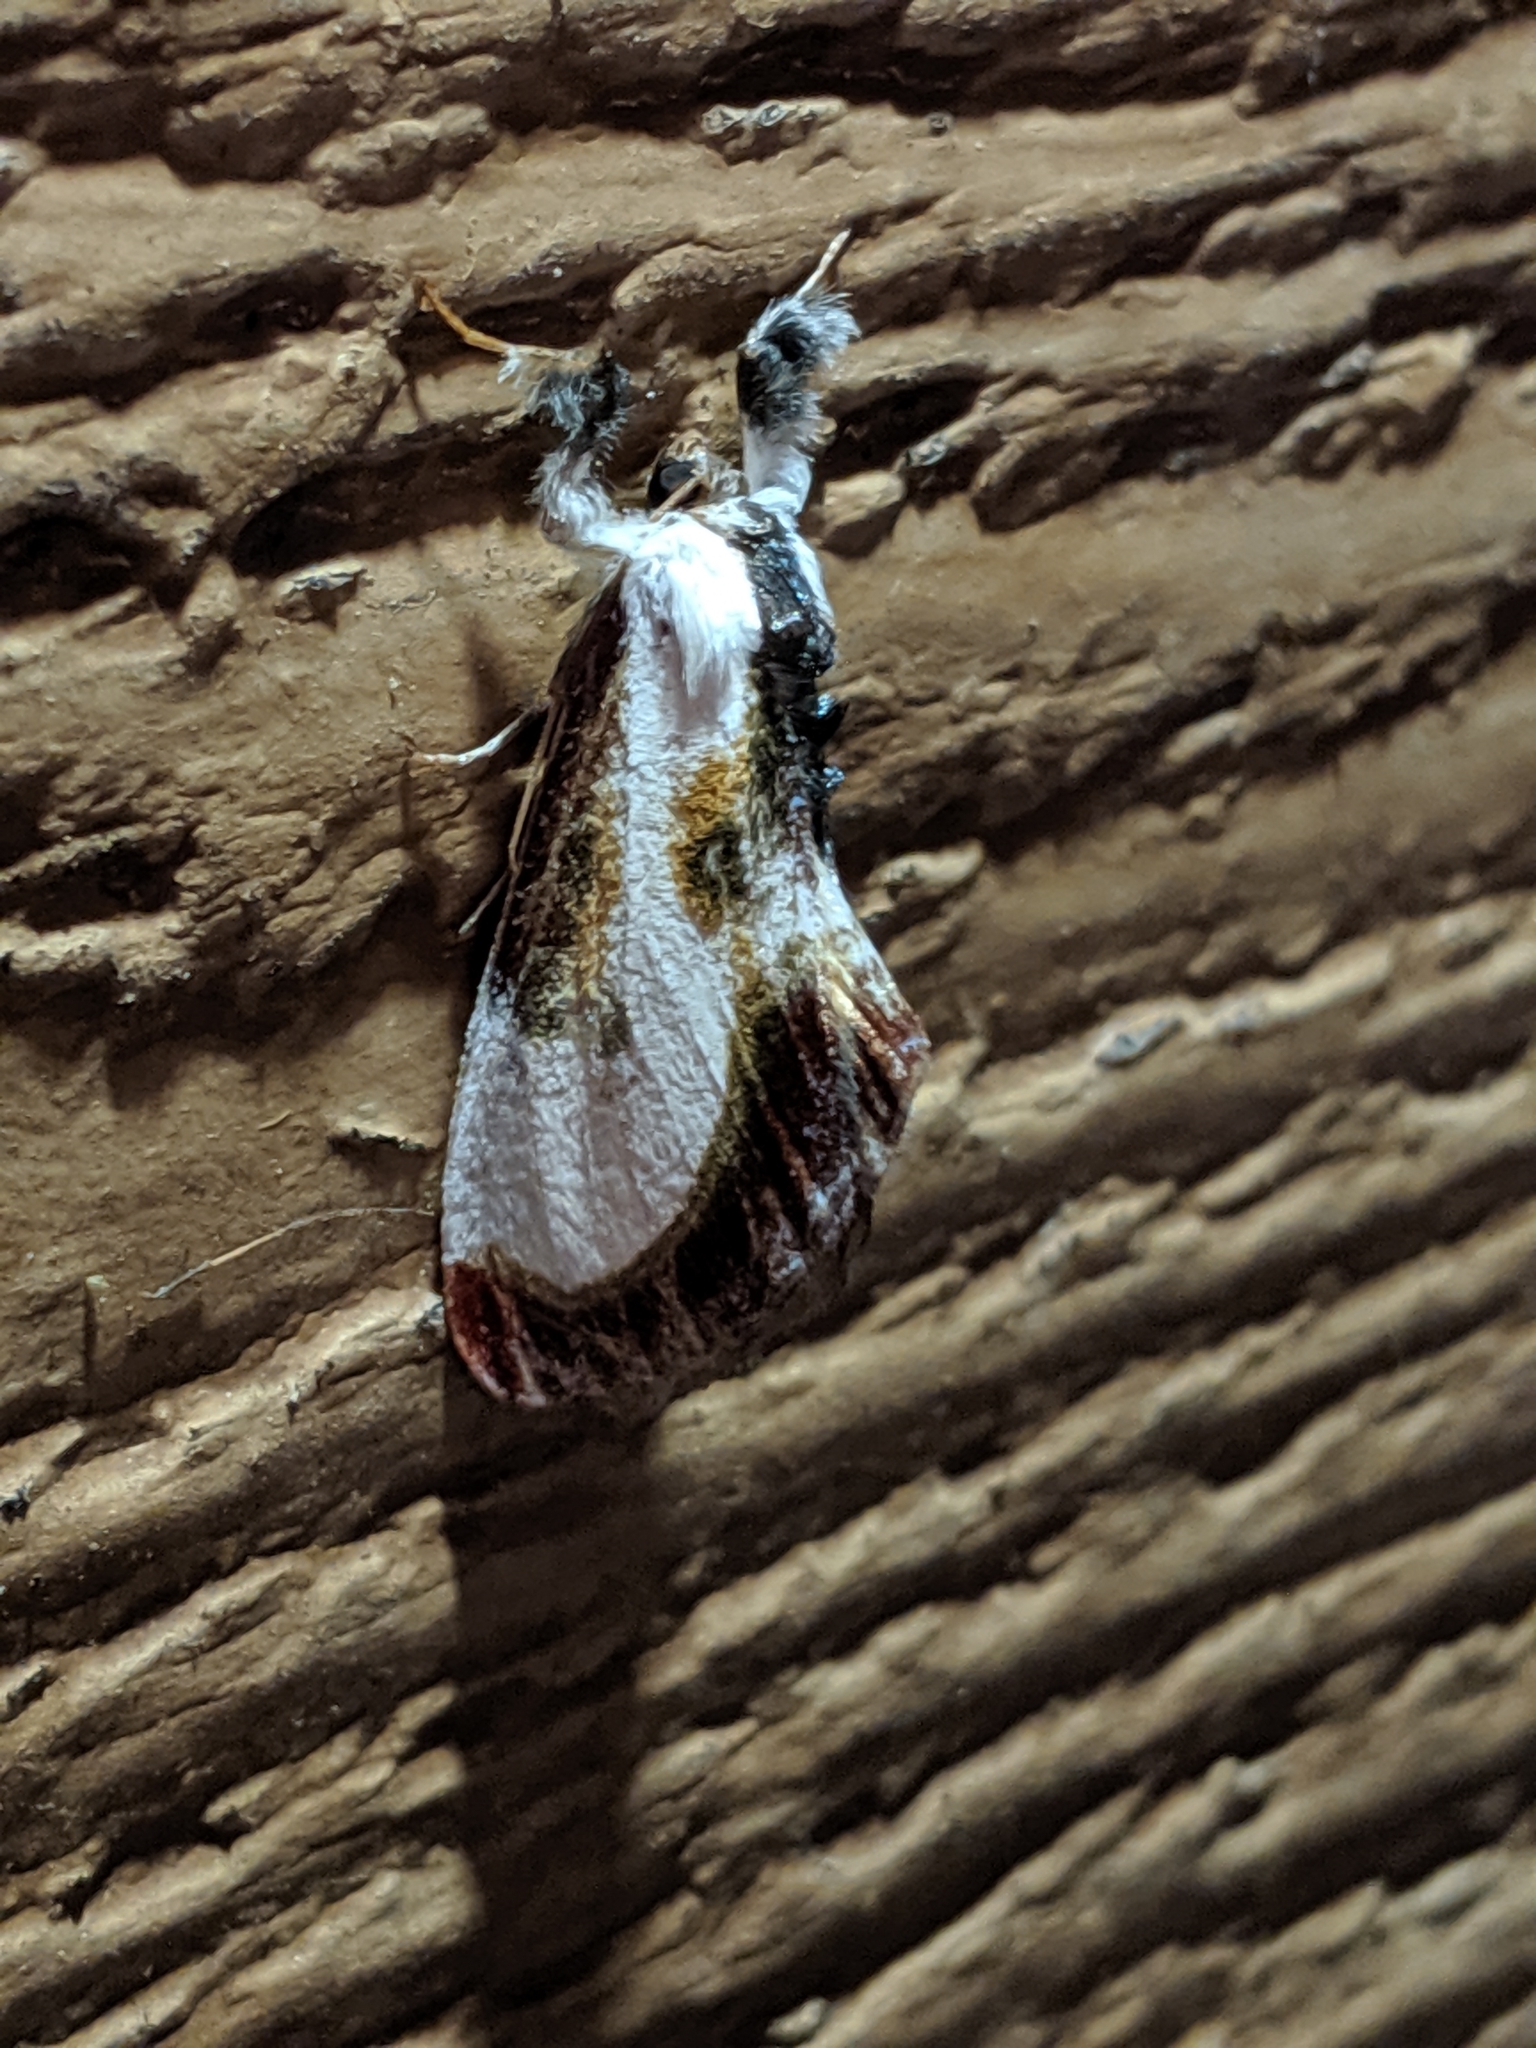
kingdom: Animalia
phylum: Arthropoda
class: Insecta
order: Lepidoptera
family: Noctuidae
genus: Eudryas
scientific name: Eudryas grata
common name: Beautiful wood-nymph
